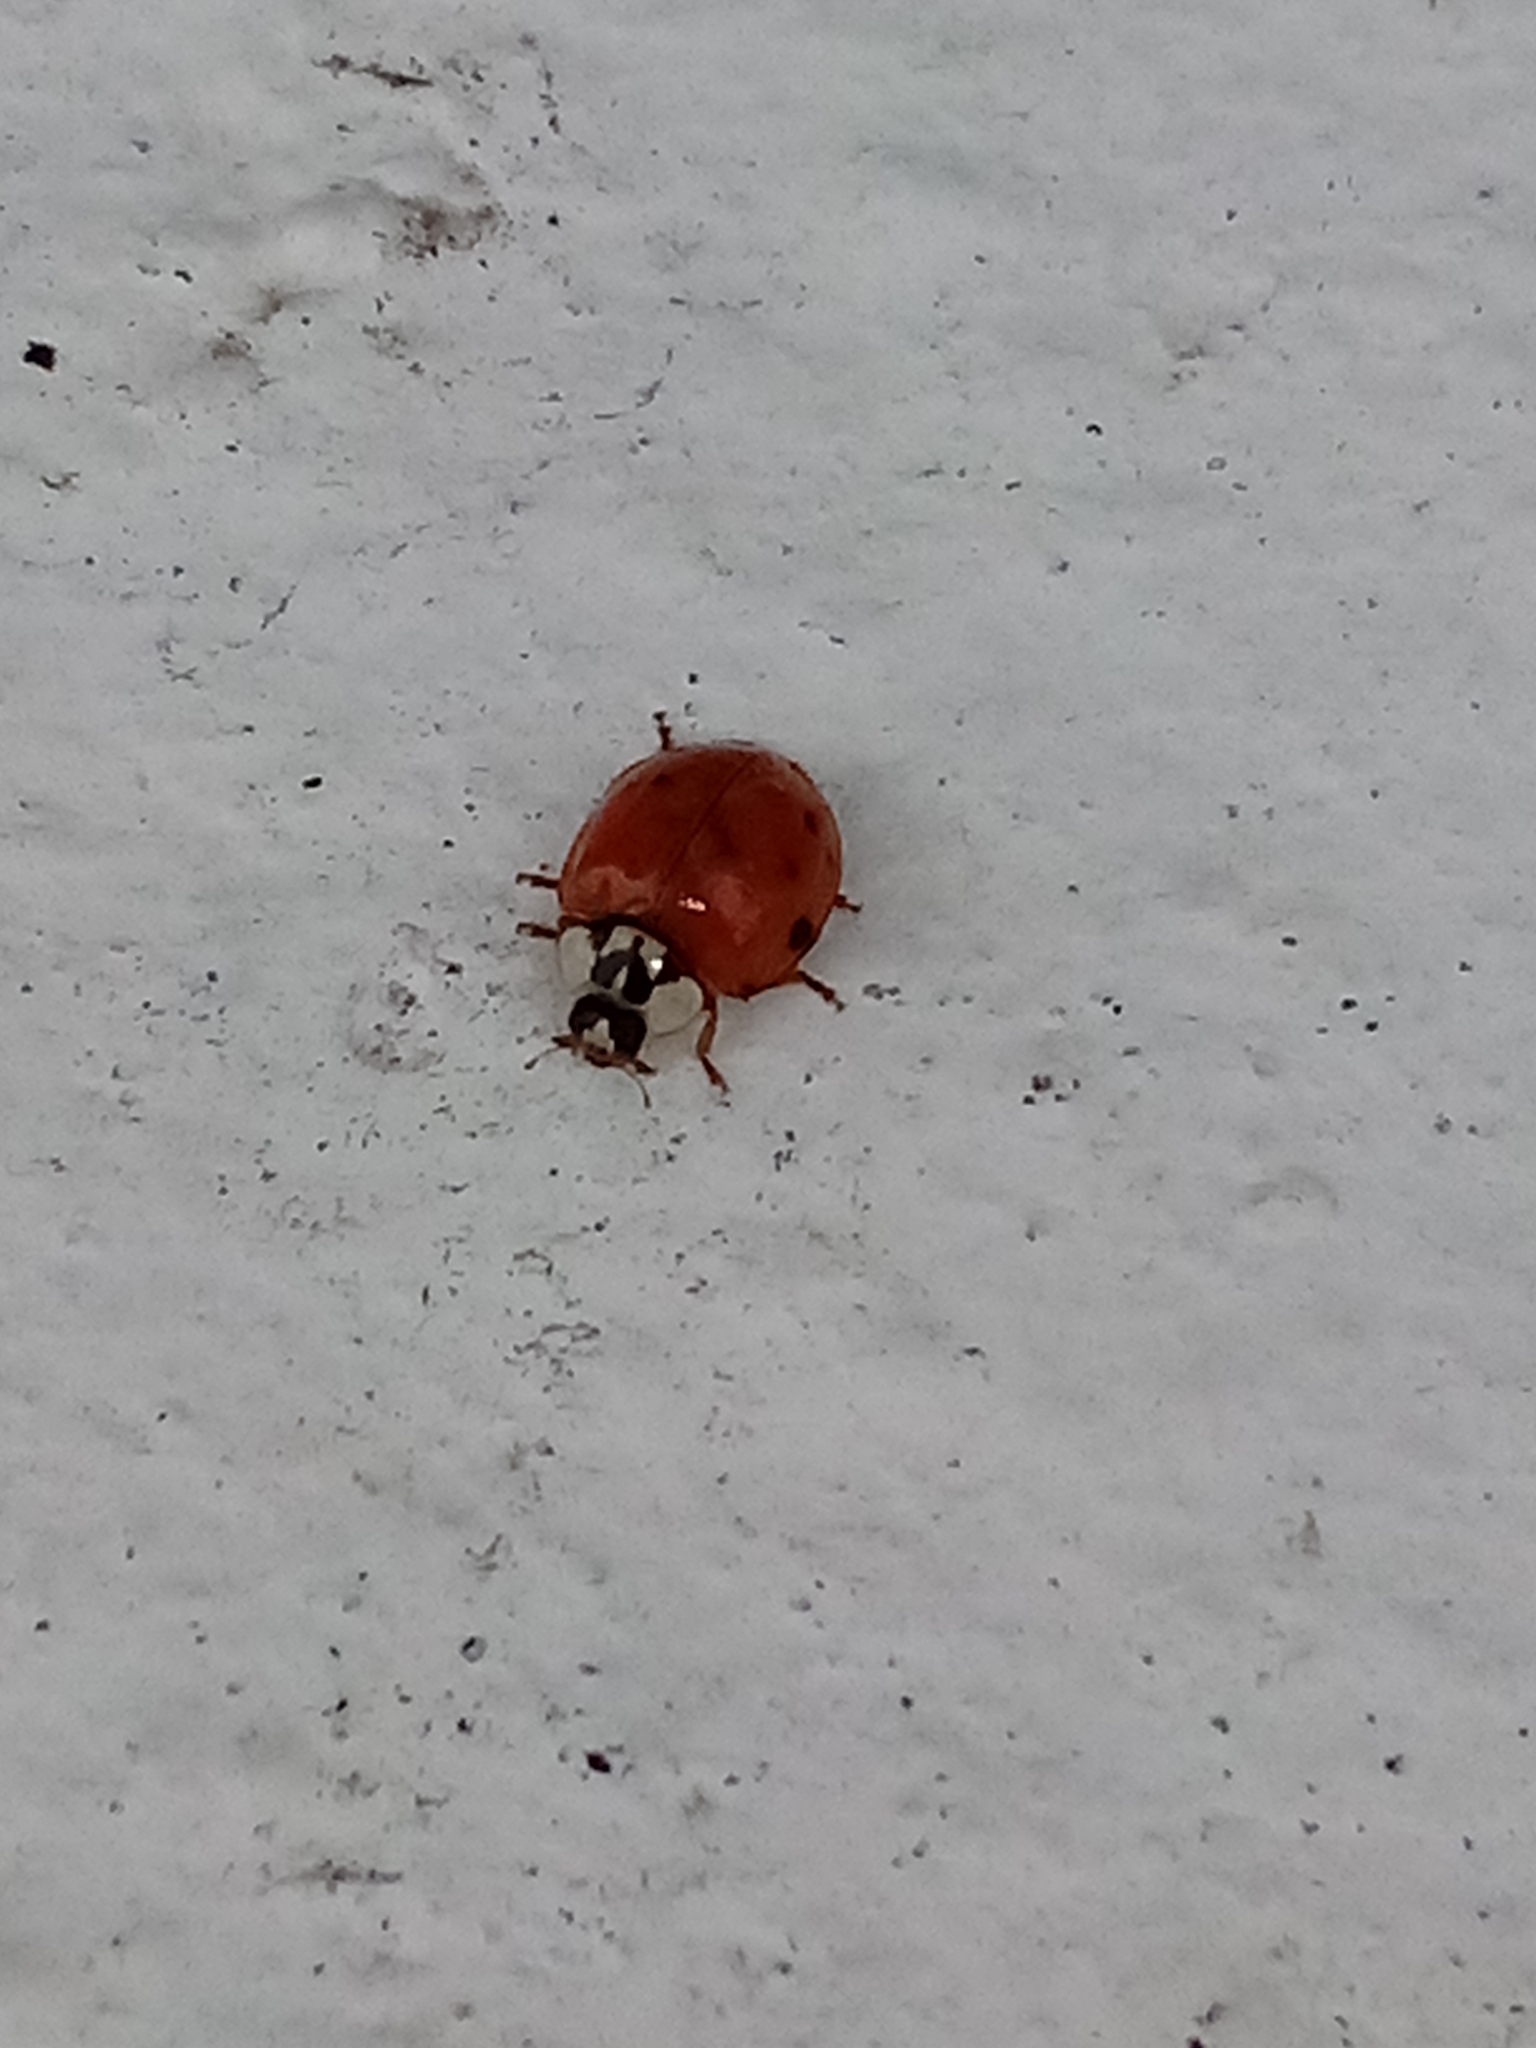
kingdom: Animalia
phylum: Arthropoda
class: Insecta
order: Coleoptera
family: Coccinellidae
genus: Harmonia
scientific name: Harmonia axyridis
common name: Harlequin ladybird
